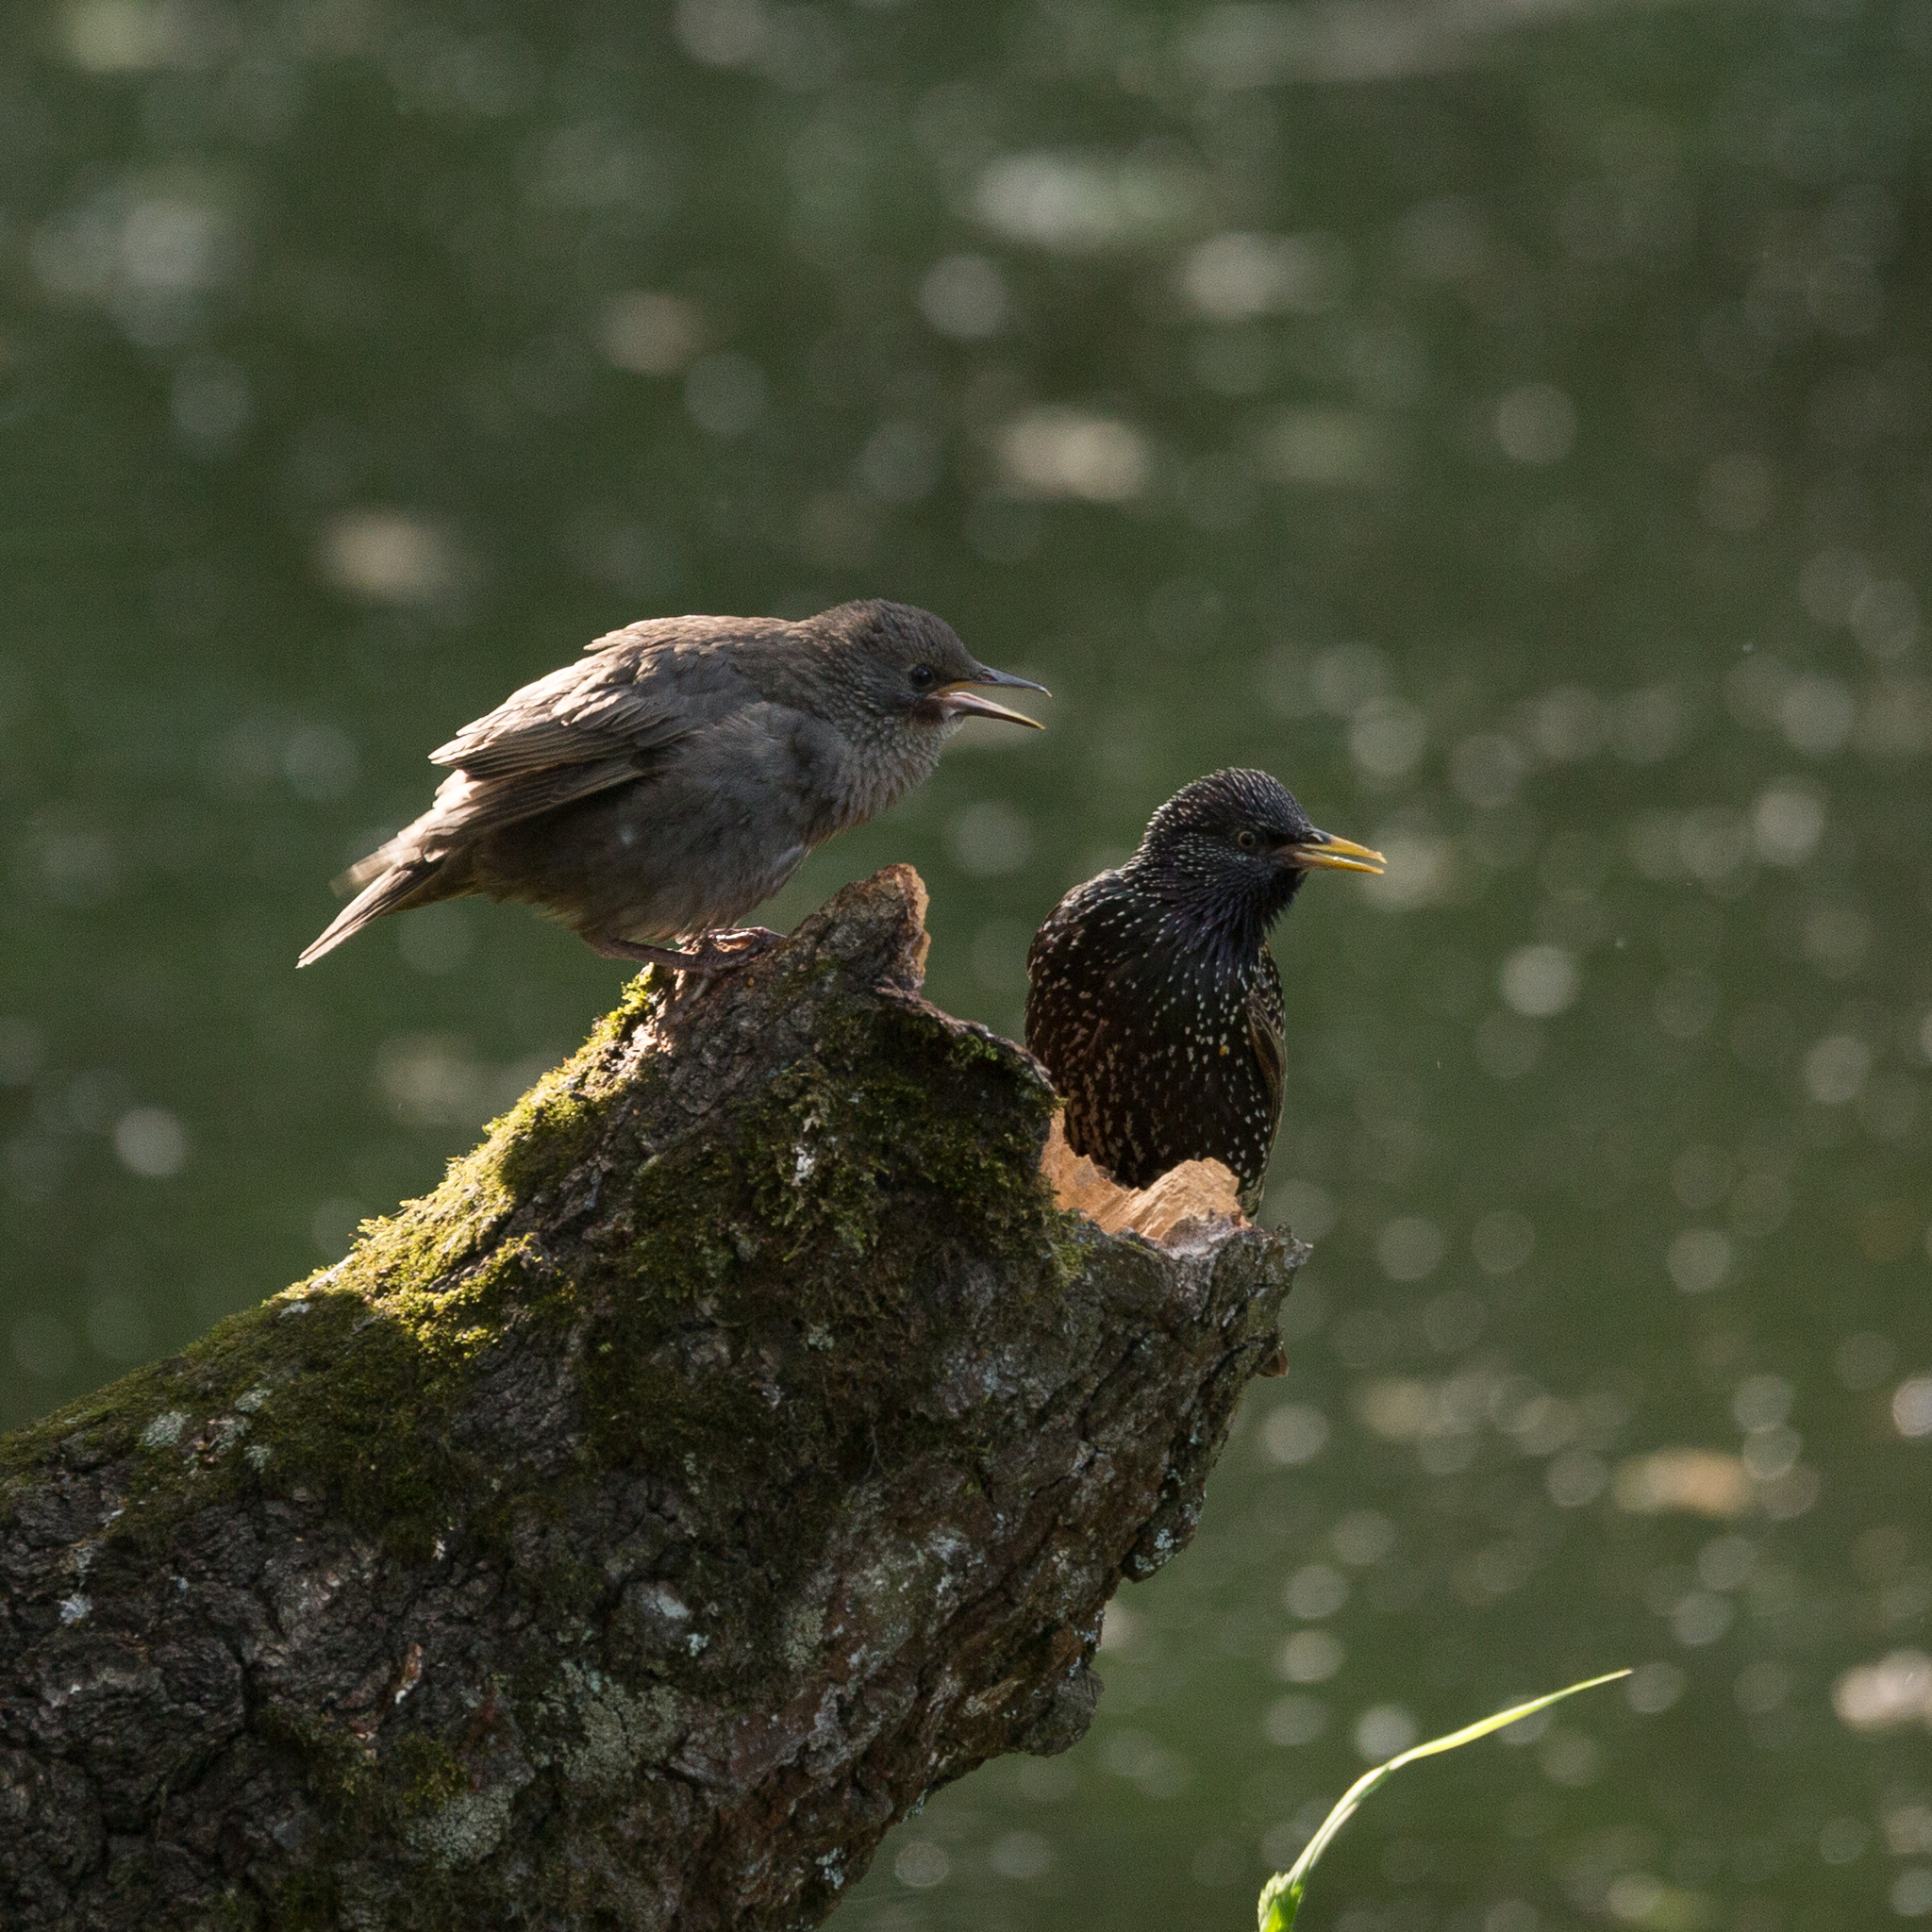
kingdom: Animalia
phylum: Chordata
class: Aves
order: Passeriformes
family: Sturnidae
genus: Sturnus
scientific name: Sturnus vulgaris
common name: Common starling
